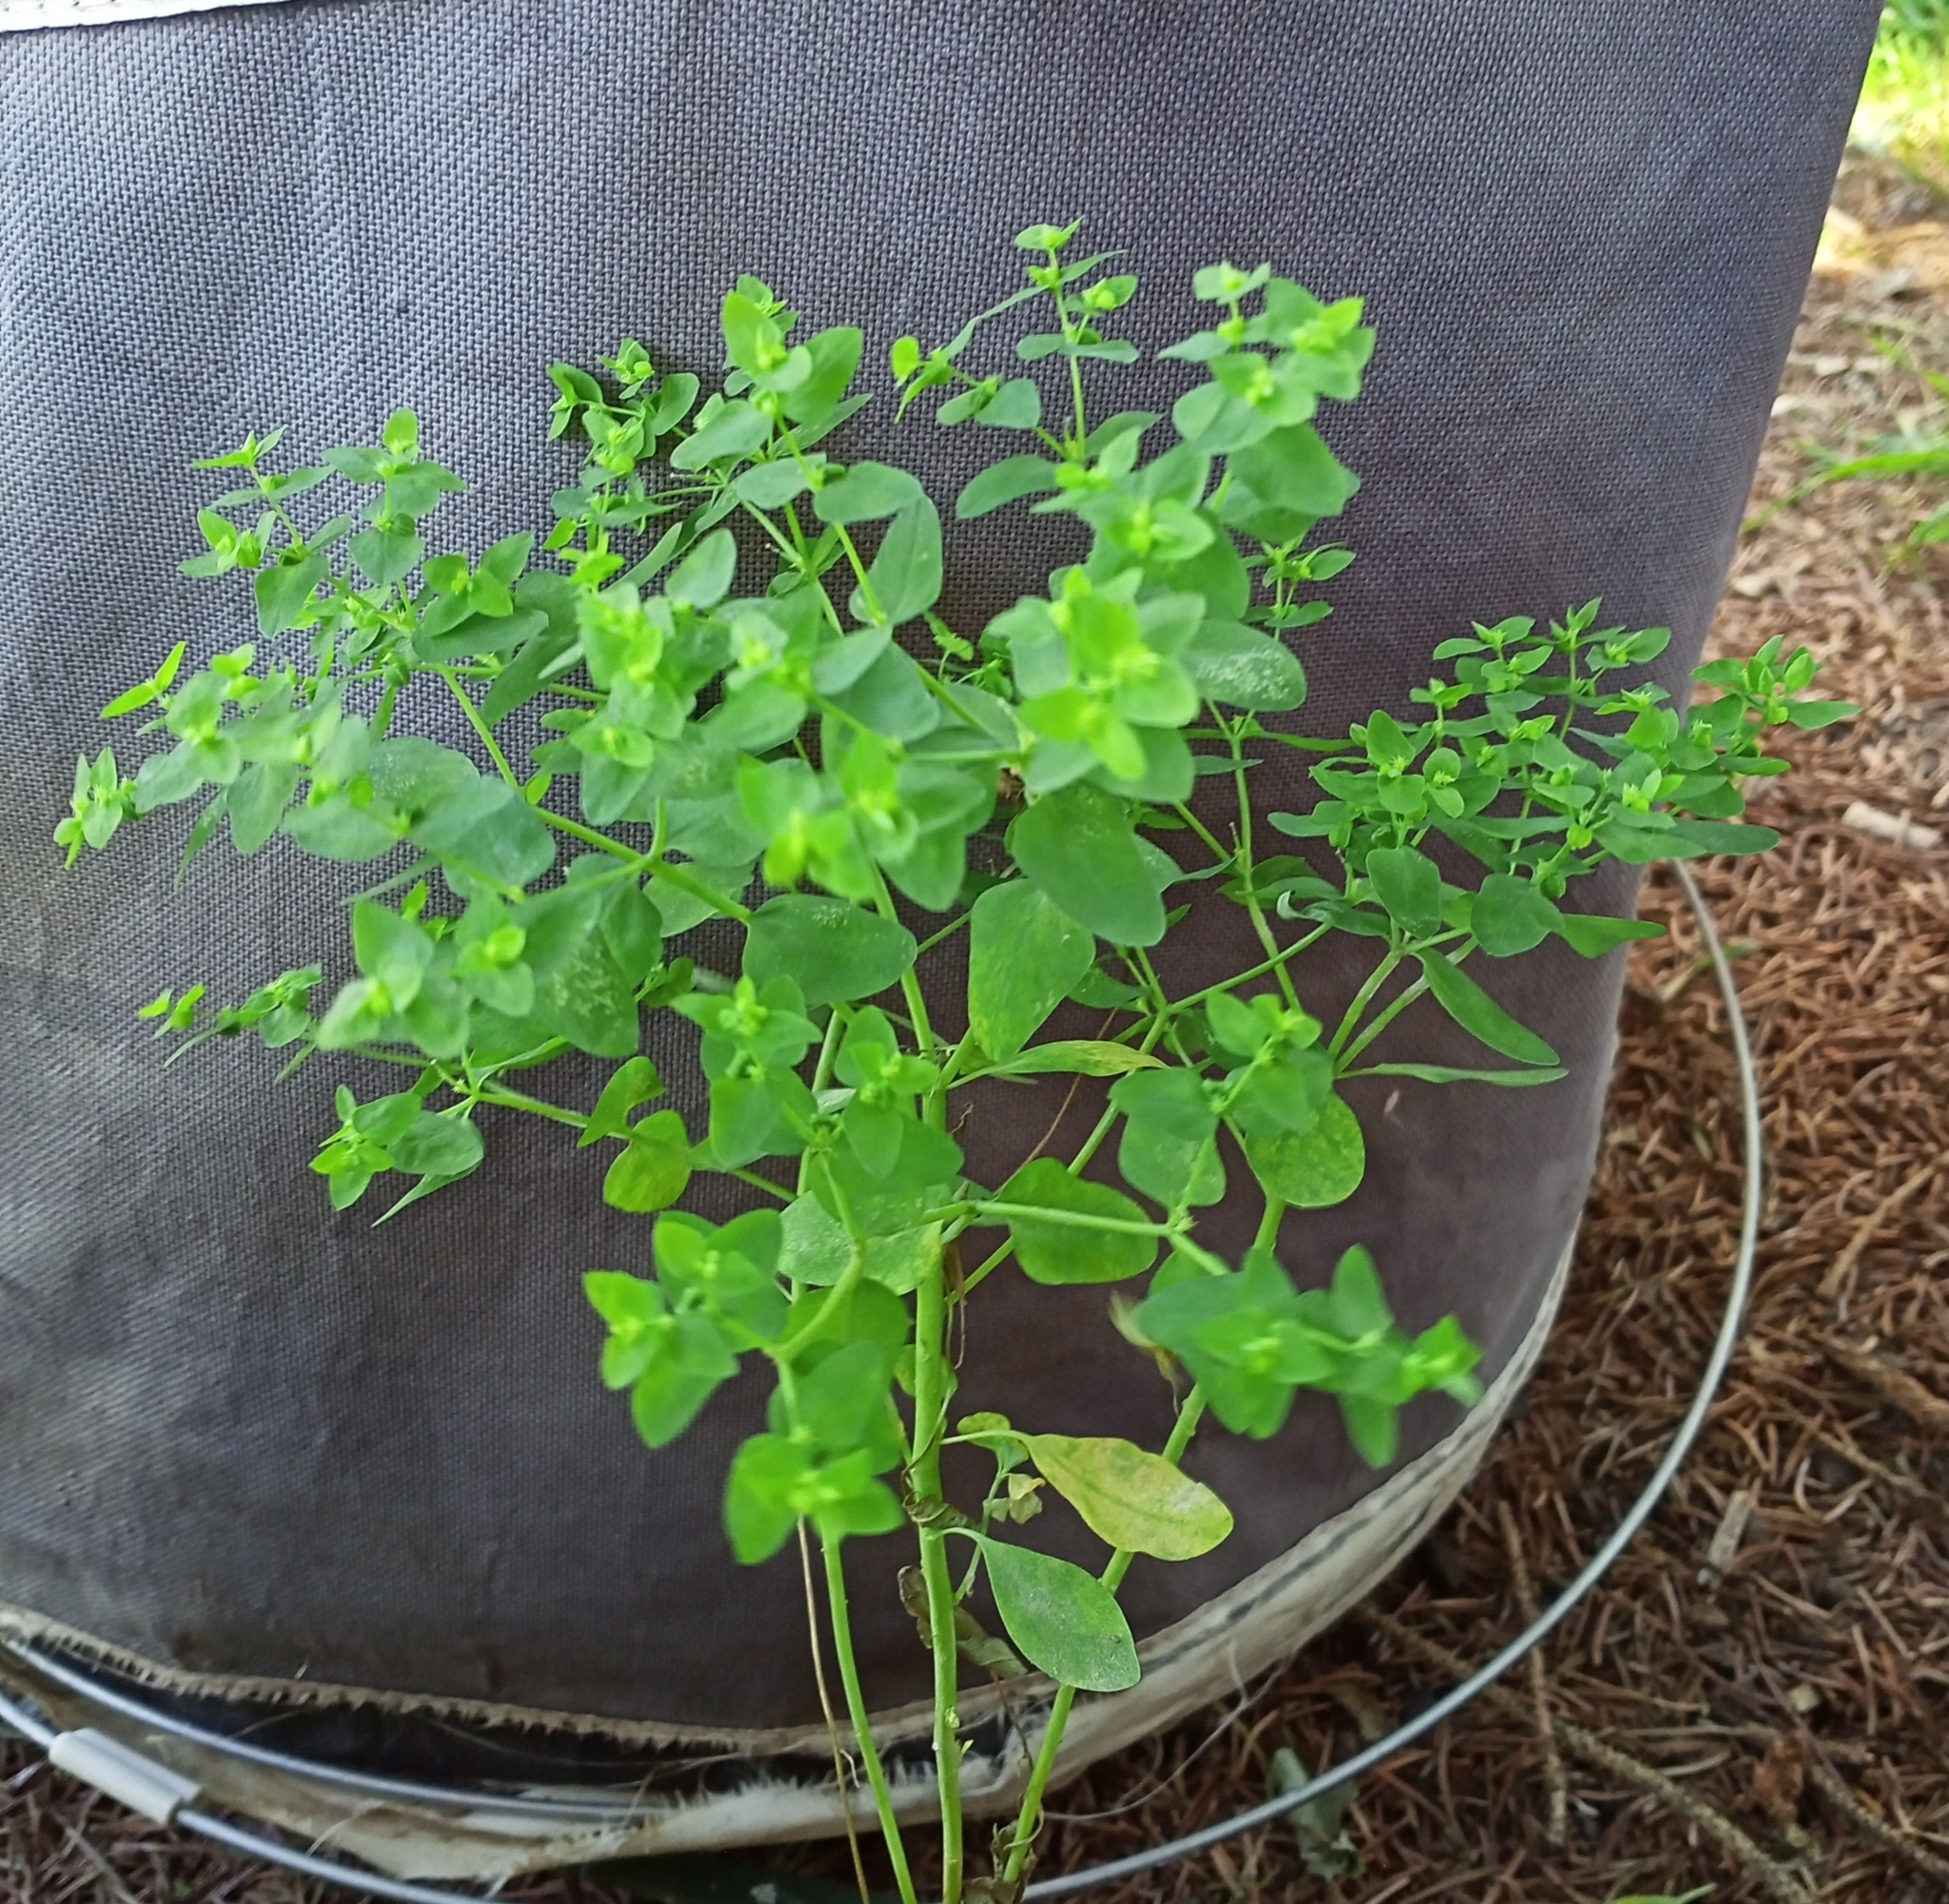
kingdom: Plantae
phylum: Tracheophyta
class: Magnoliopsida
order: Malpighiales
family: Euphorbiaceae
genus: Euphorbia
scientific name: Euphorbia peplus
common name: Petty spurge
